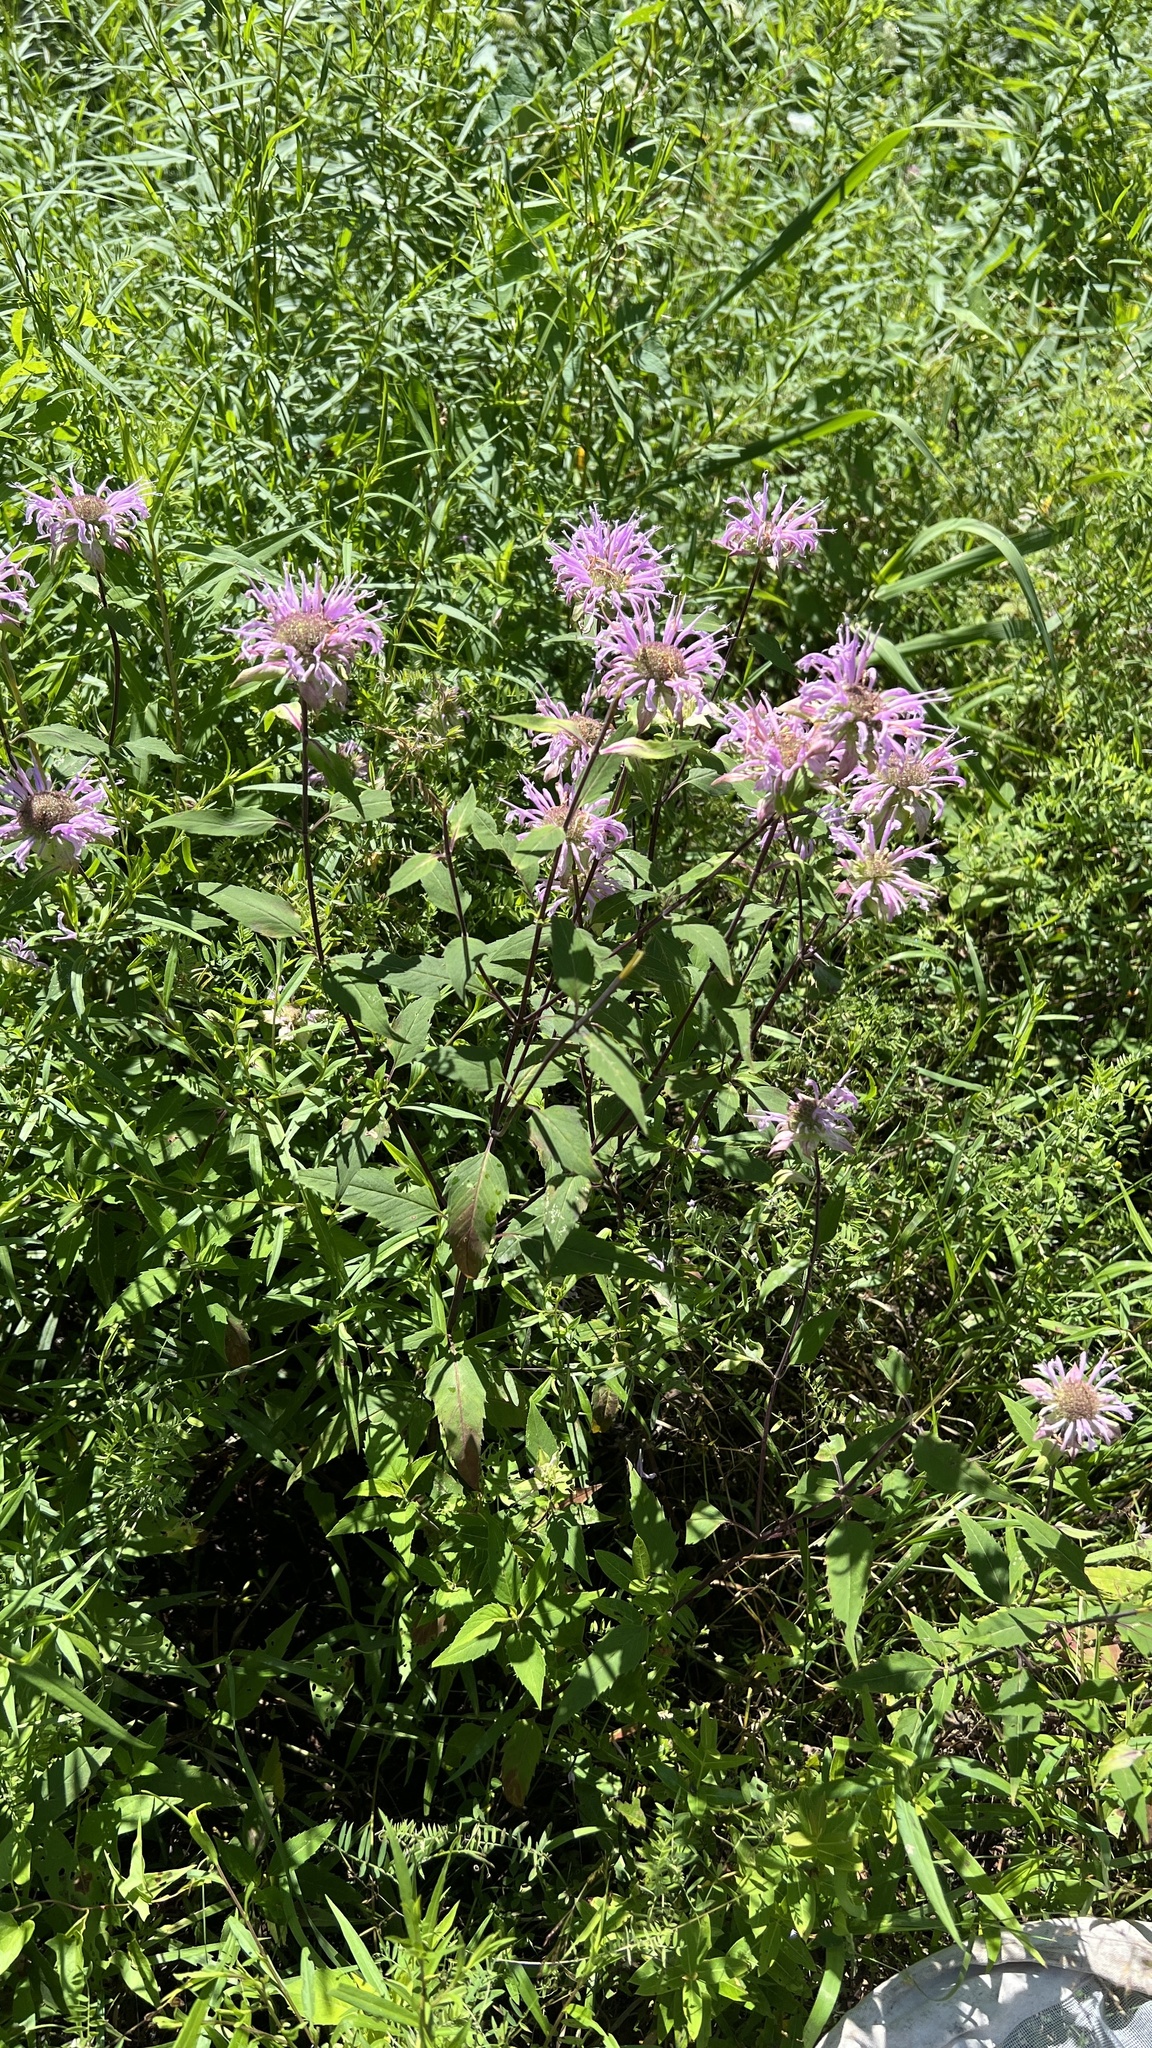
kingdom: Plantae
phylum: Tracheophyta
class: Magnoliopsida
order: Lamiales
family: Lamiaceae
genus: Monarda
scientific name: Monarda fistulosa
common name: Purple beebalm
